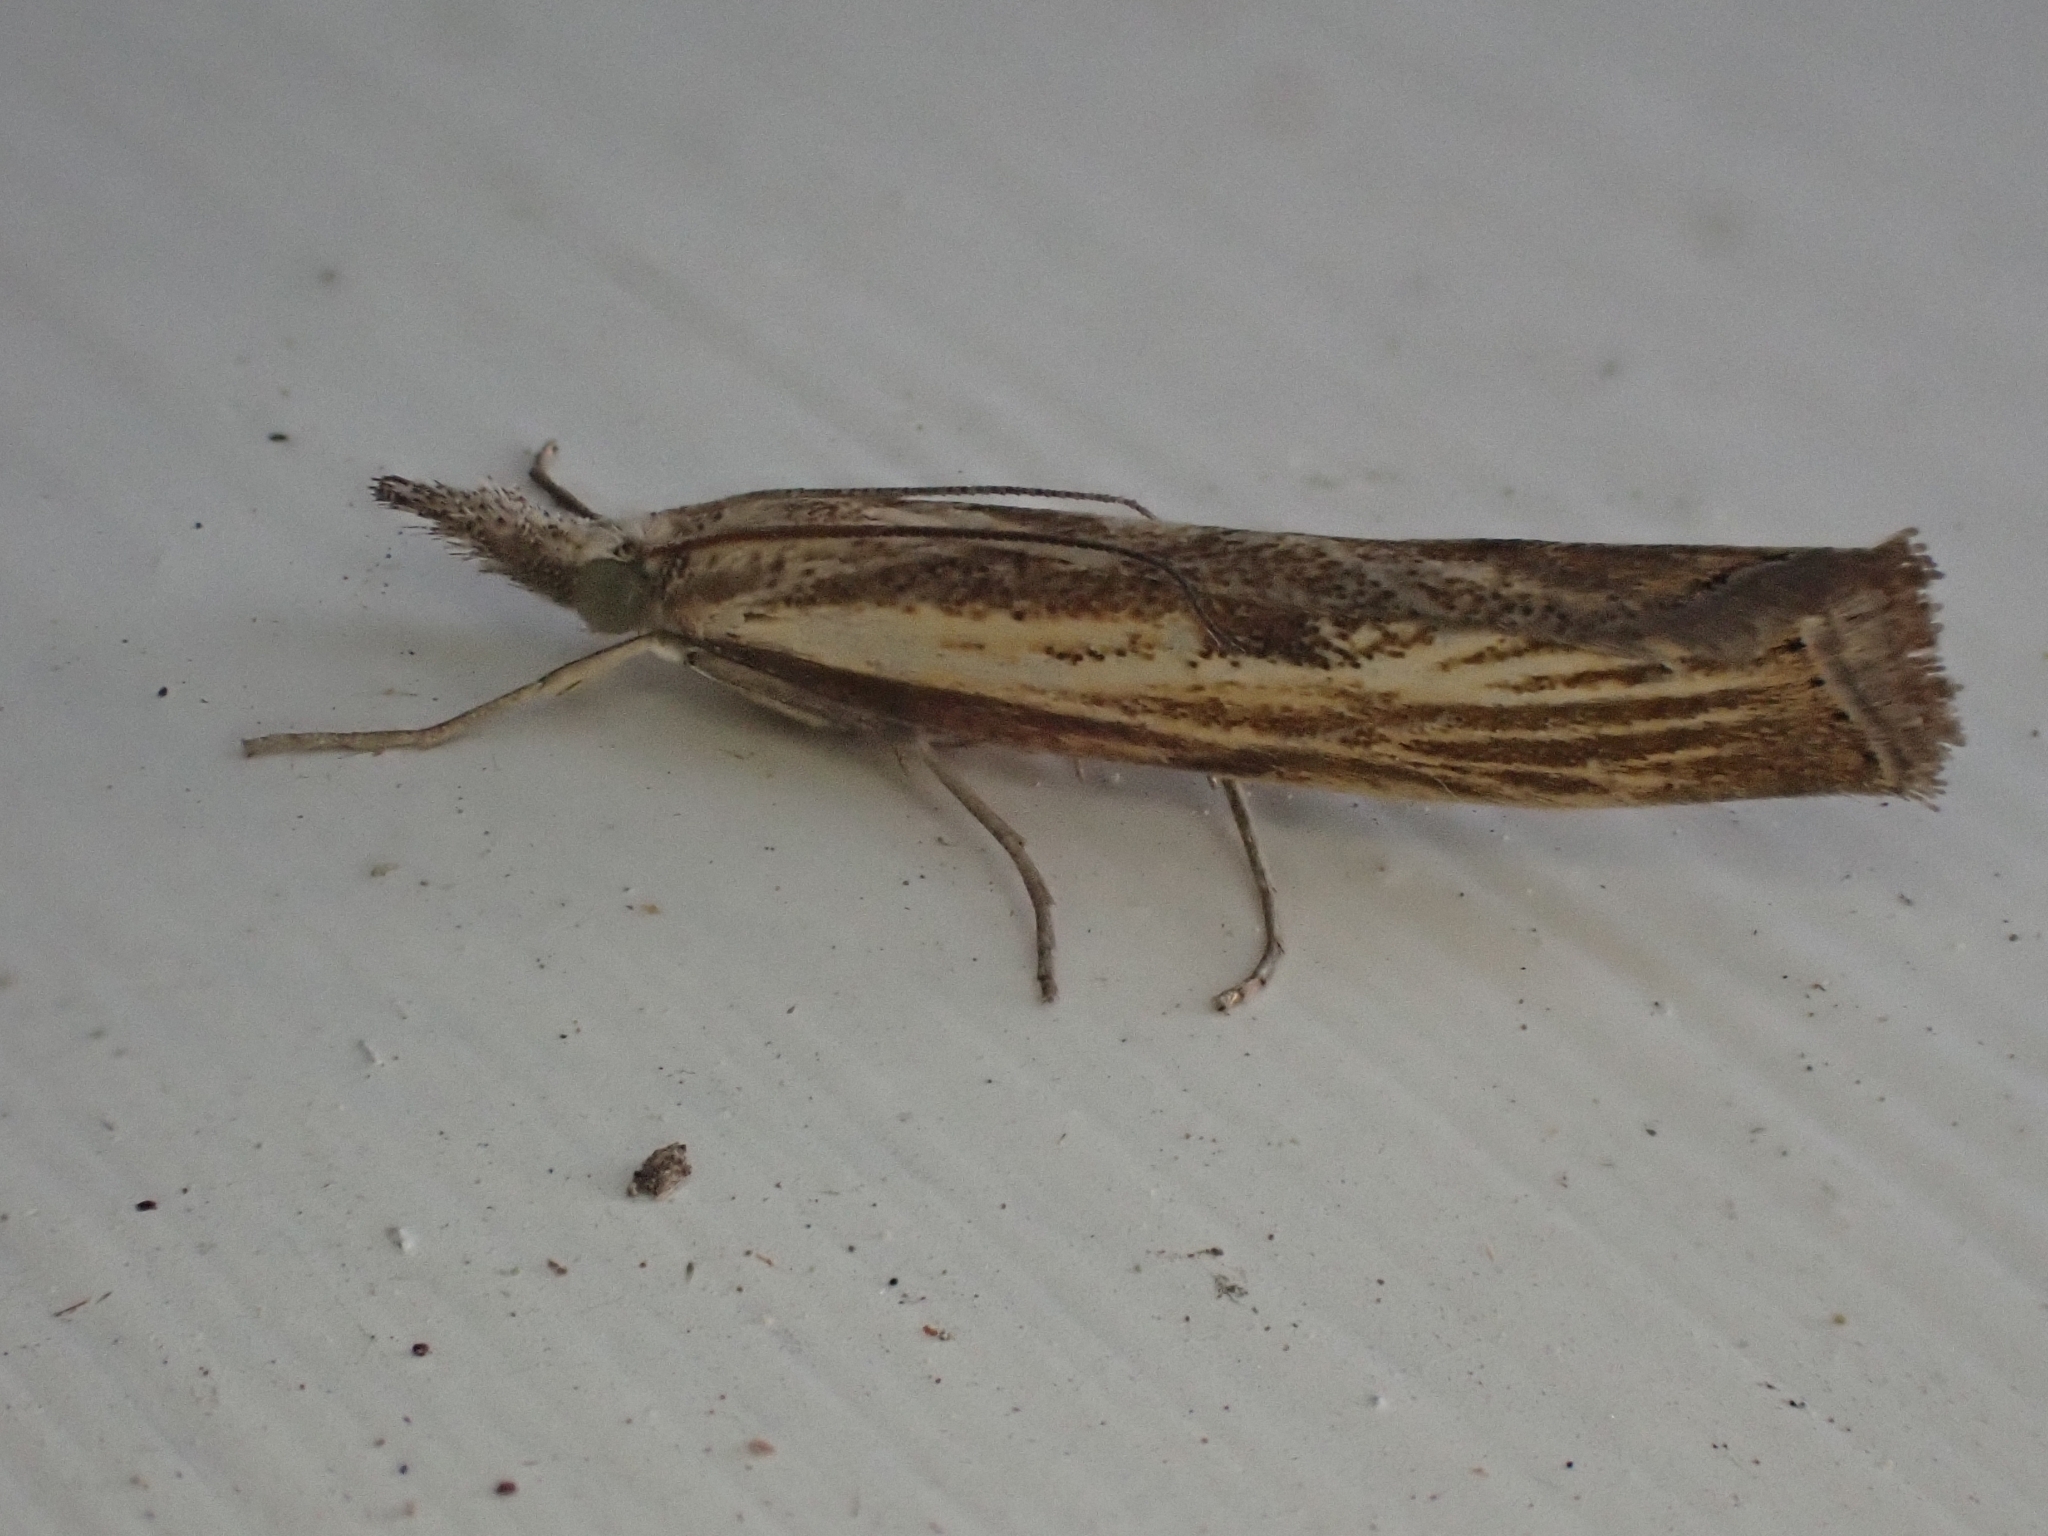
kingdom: Animalia
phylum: Arthropoda
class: Insecta
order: Lepidoptera
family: Crambidae
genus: Agriphila
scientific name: Agriphila tristellus
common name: Common grass-veneer
